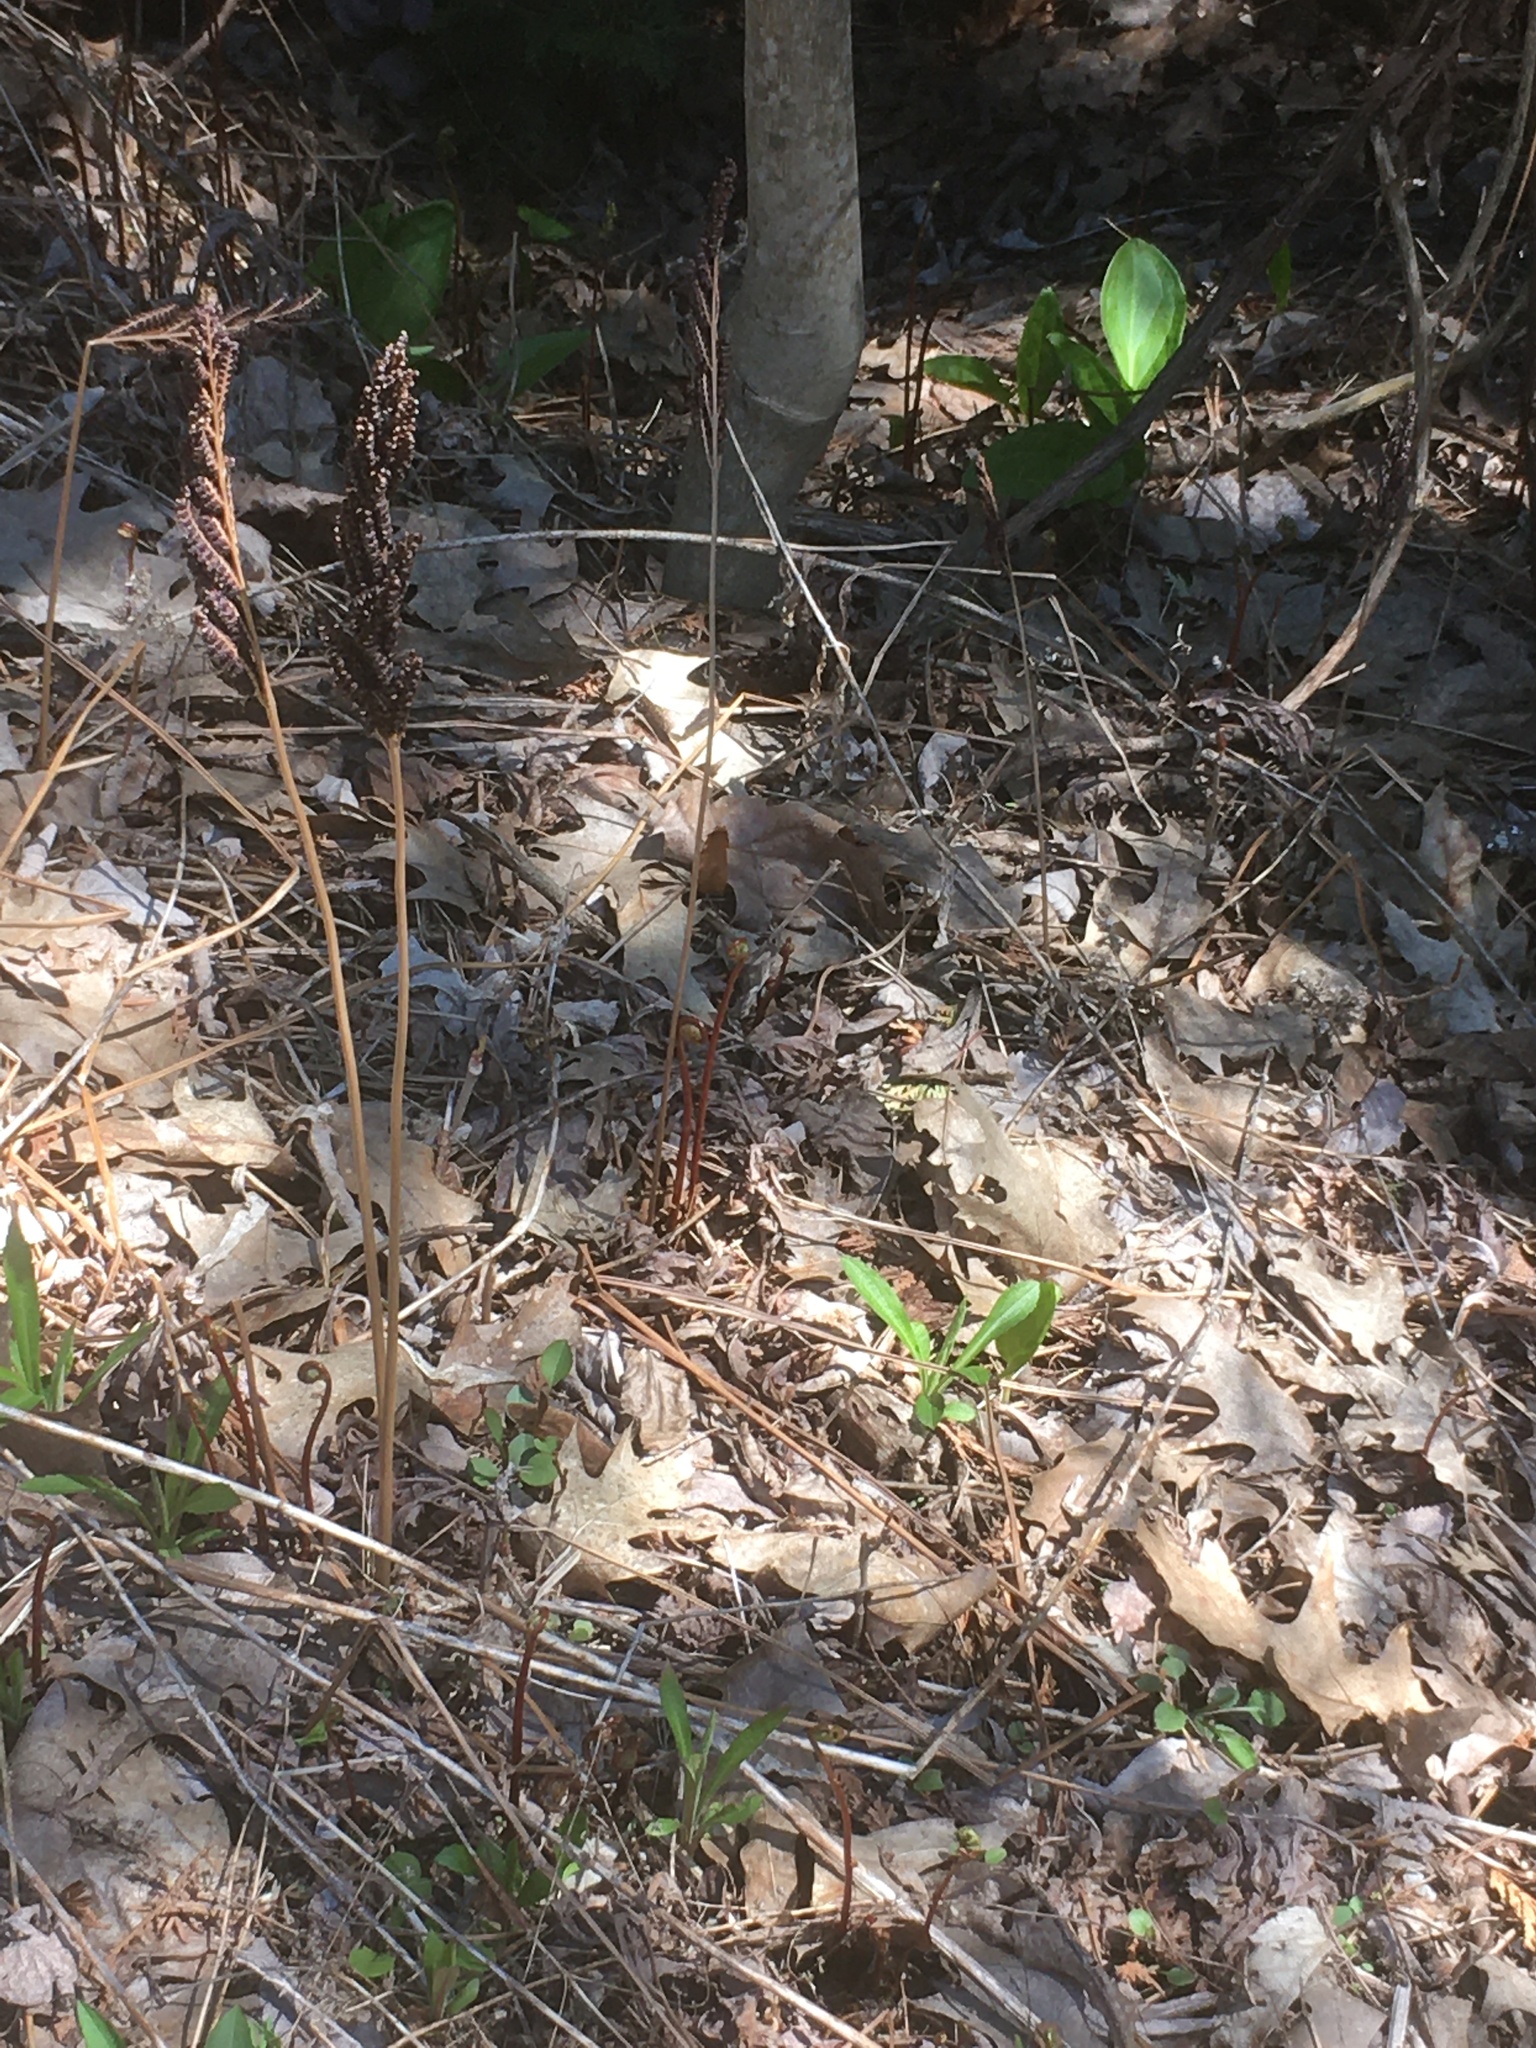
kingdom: Plantae
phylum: Tracheophyta
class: Polypodiopsida
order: Polypodiales
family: Onocleaceae
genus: Onoclea
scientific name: Onoclea sensibilis
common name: Sensitive fern
